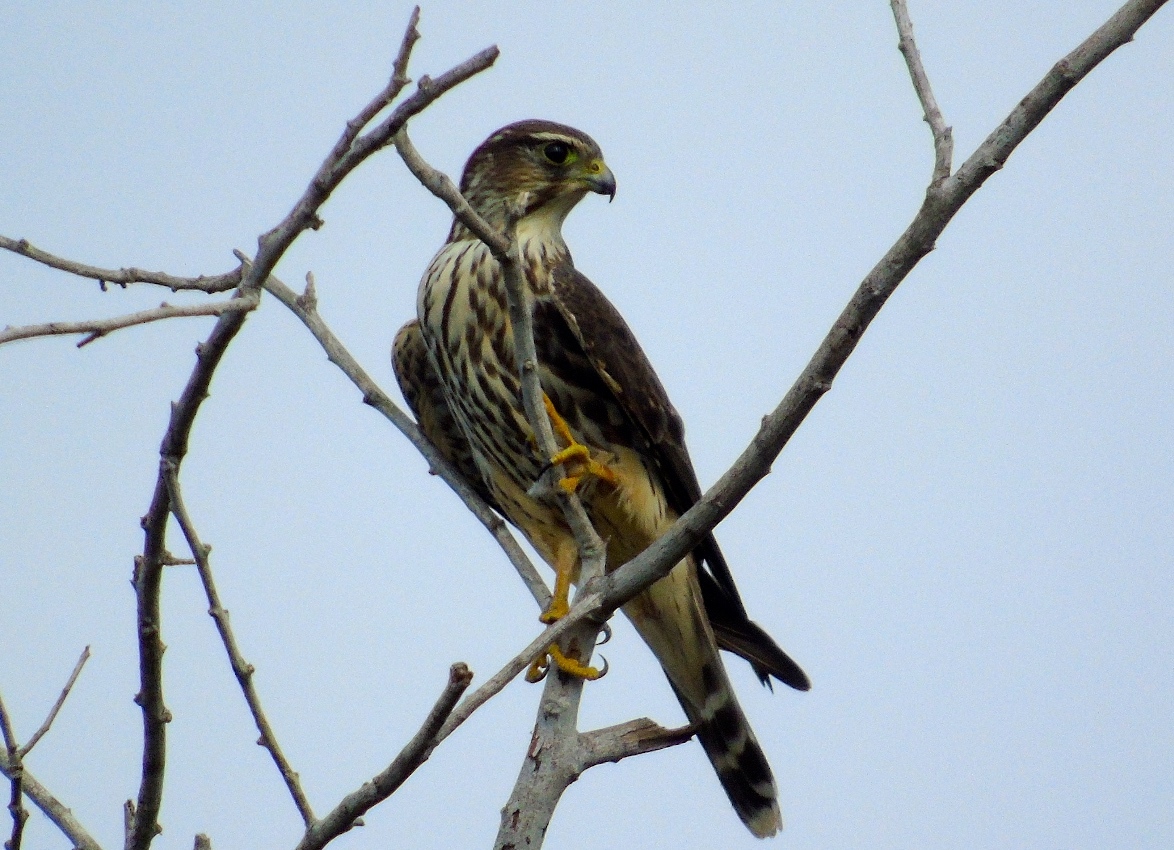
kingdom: Animalia
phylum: Chordata
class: Aves
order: Falconiformes
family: Falconidae
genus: Falco
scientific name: Falco columbarius
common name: Merlin
